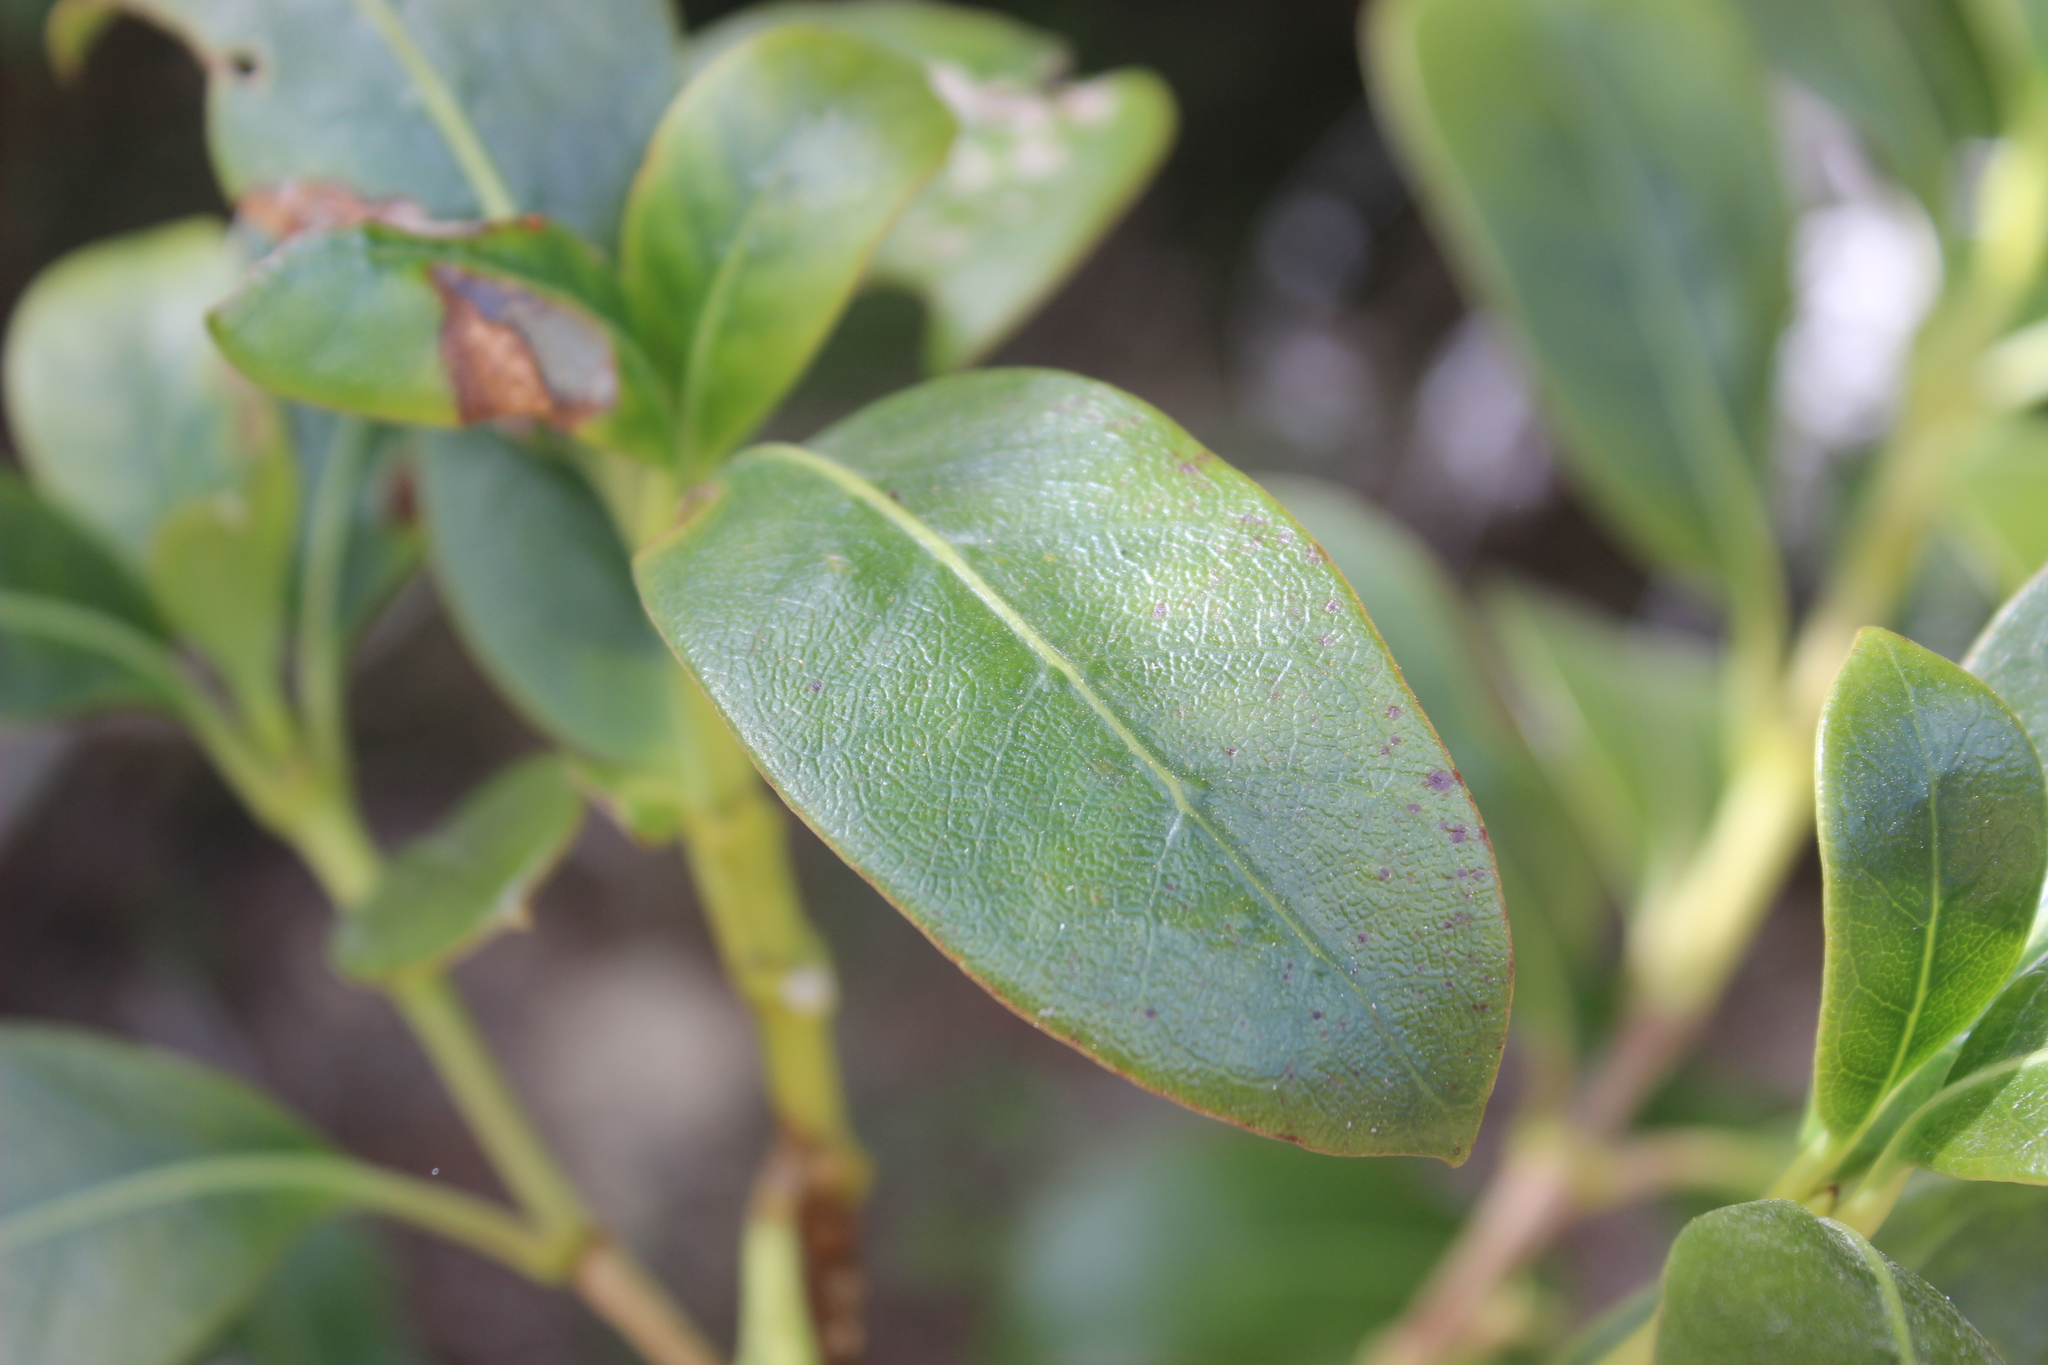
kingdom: Plantae
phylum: Tracheophyta
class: Magnoliopsida
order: Gentianales
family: Rubiaceae
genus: Coprosma
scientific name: Coprosma lucida
